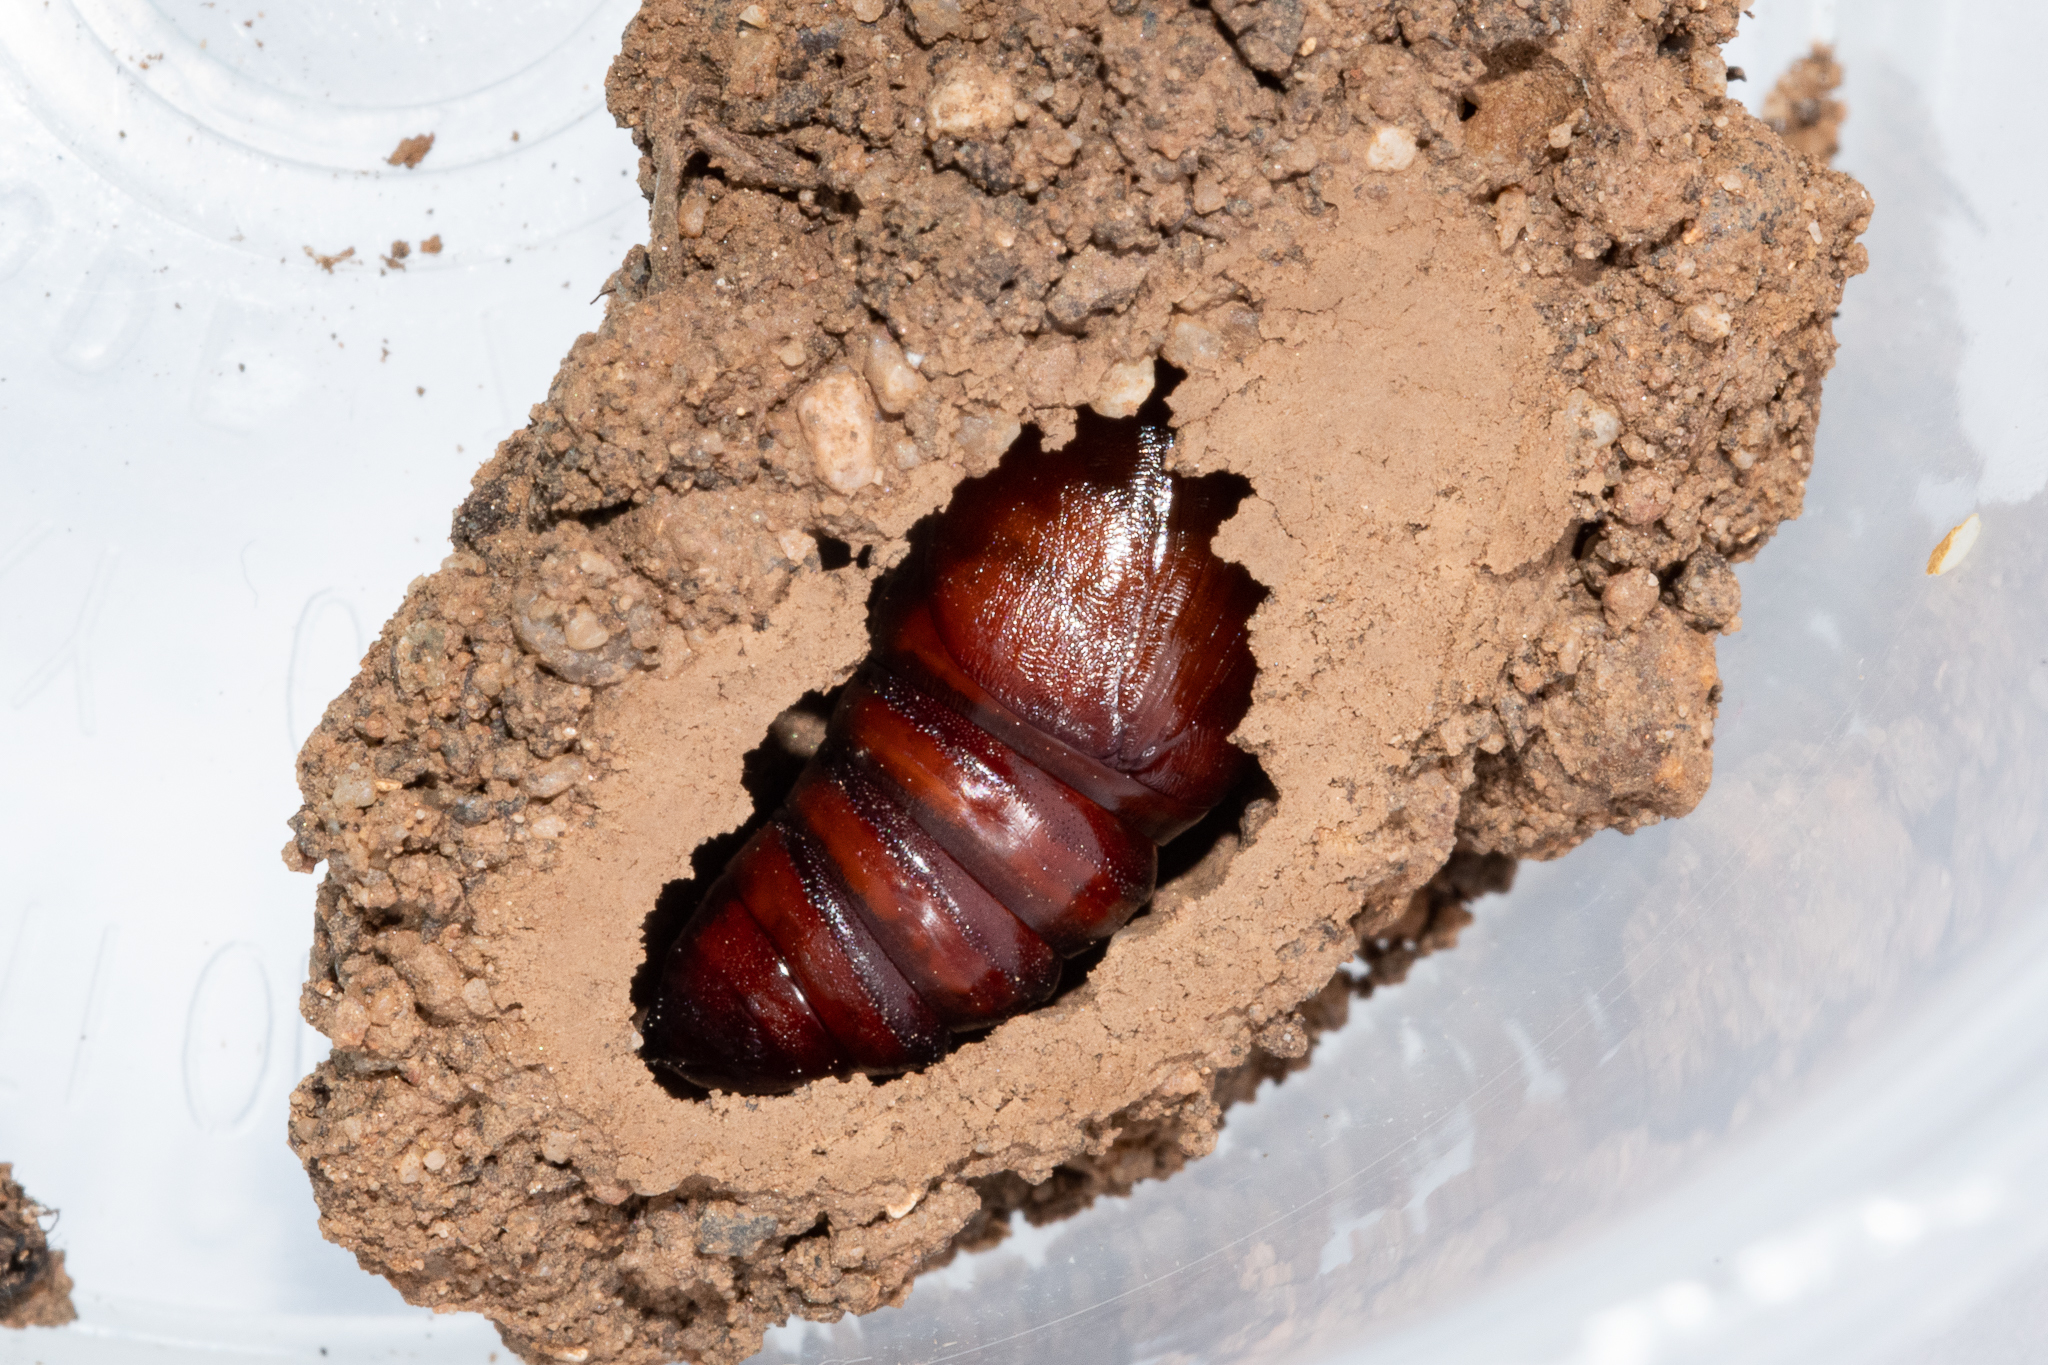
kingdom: Animalia
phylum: Arthropoda
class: Insecta
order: Lepidoptera
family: Noctuidae
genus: Klugeana
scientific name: Klugeana philoxalis
